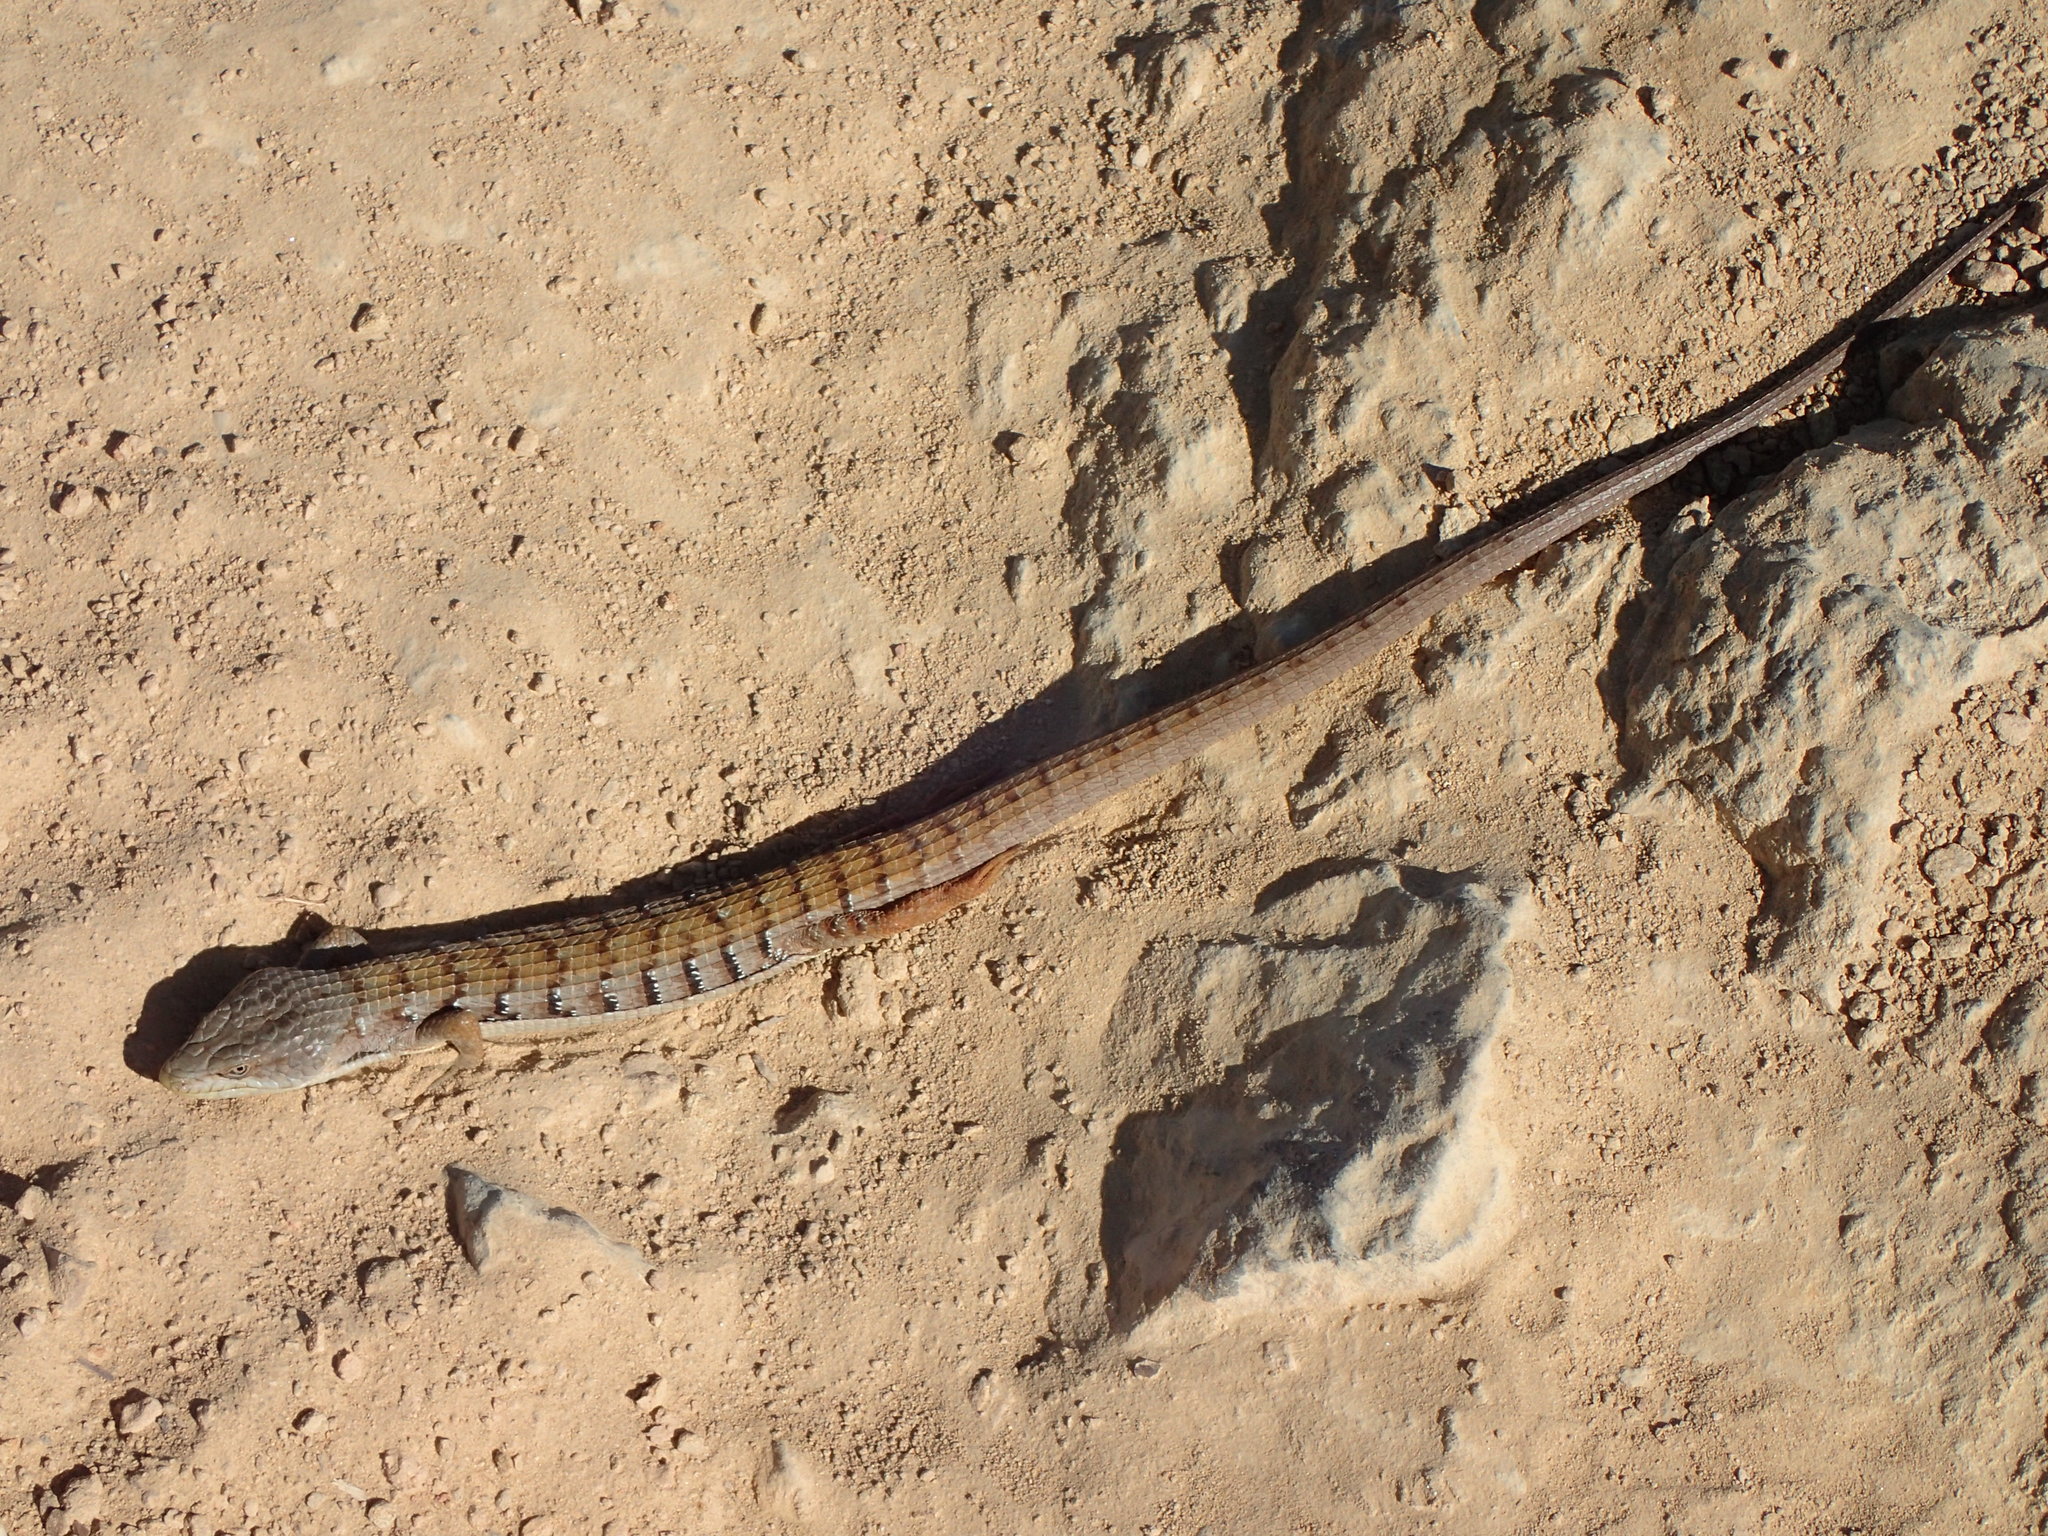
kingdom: Animalia
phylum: Chordata
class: Squamata
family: Anguidae
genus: Elgaria
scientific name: Elgaria multicarinata
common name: Southern alligator lizard
